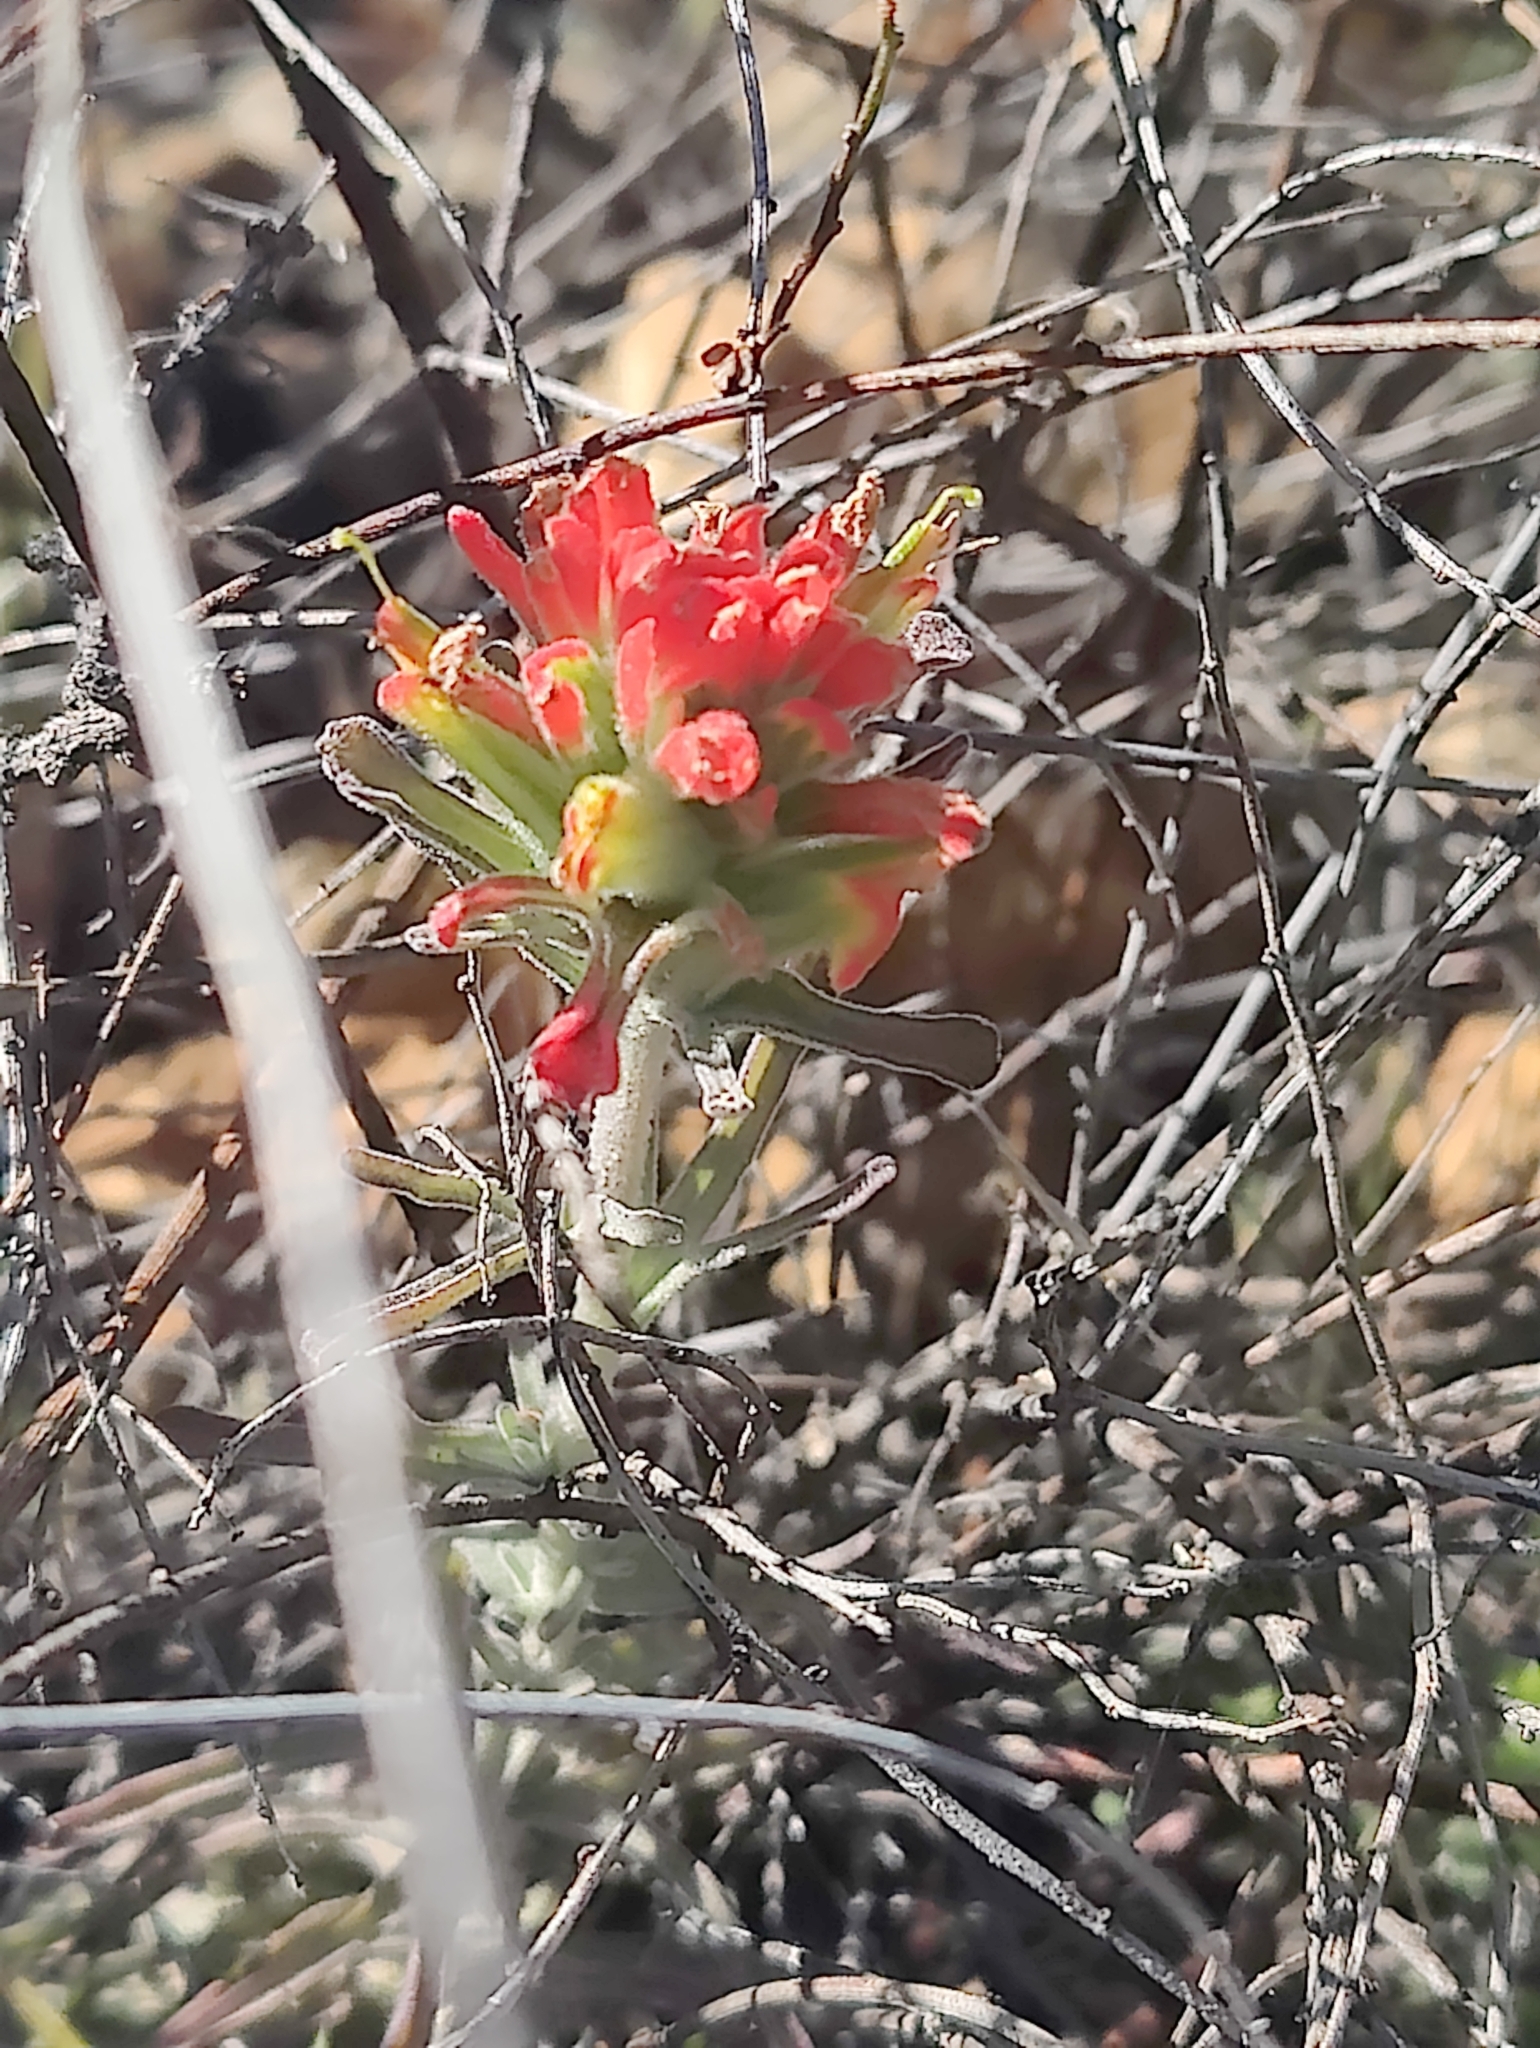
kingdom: Plantae
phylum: Tracheophyta
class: Magnoliopsida
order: Lamiales
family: Orobanchaceae
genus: Castilleja
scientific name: Castilleja foliolosa
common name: Woolly indian paintbrush
